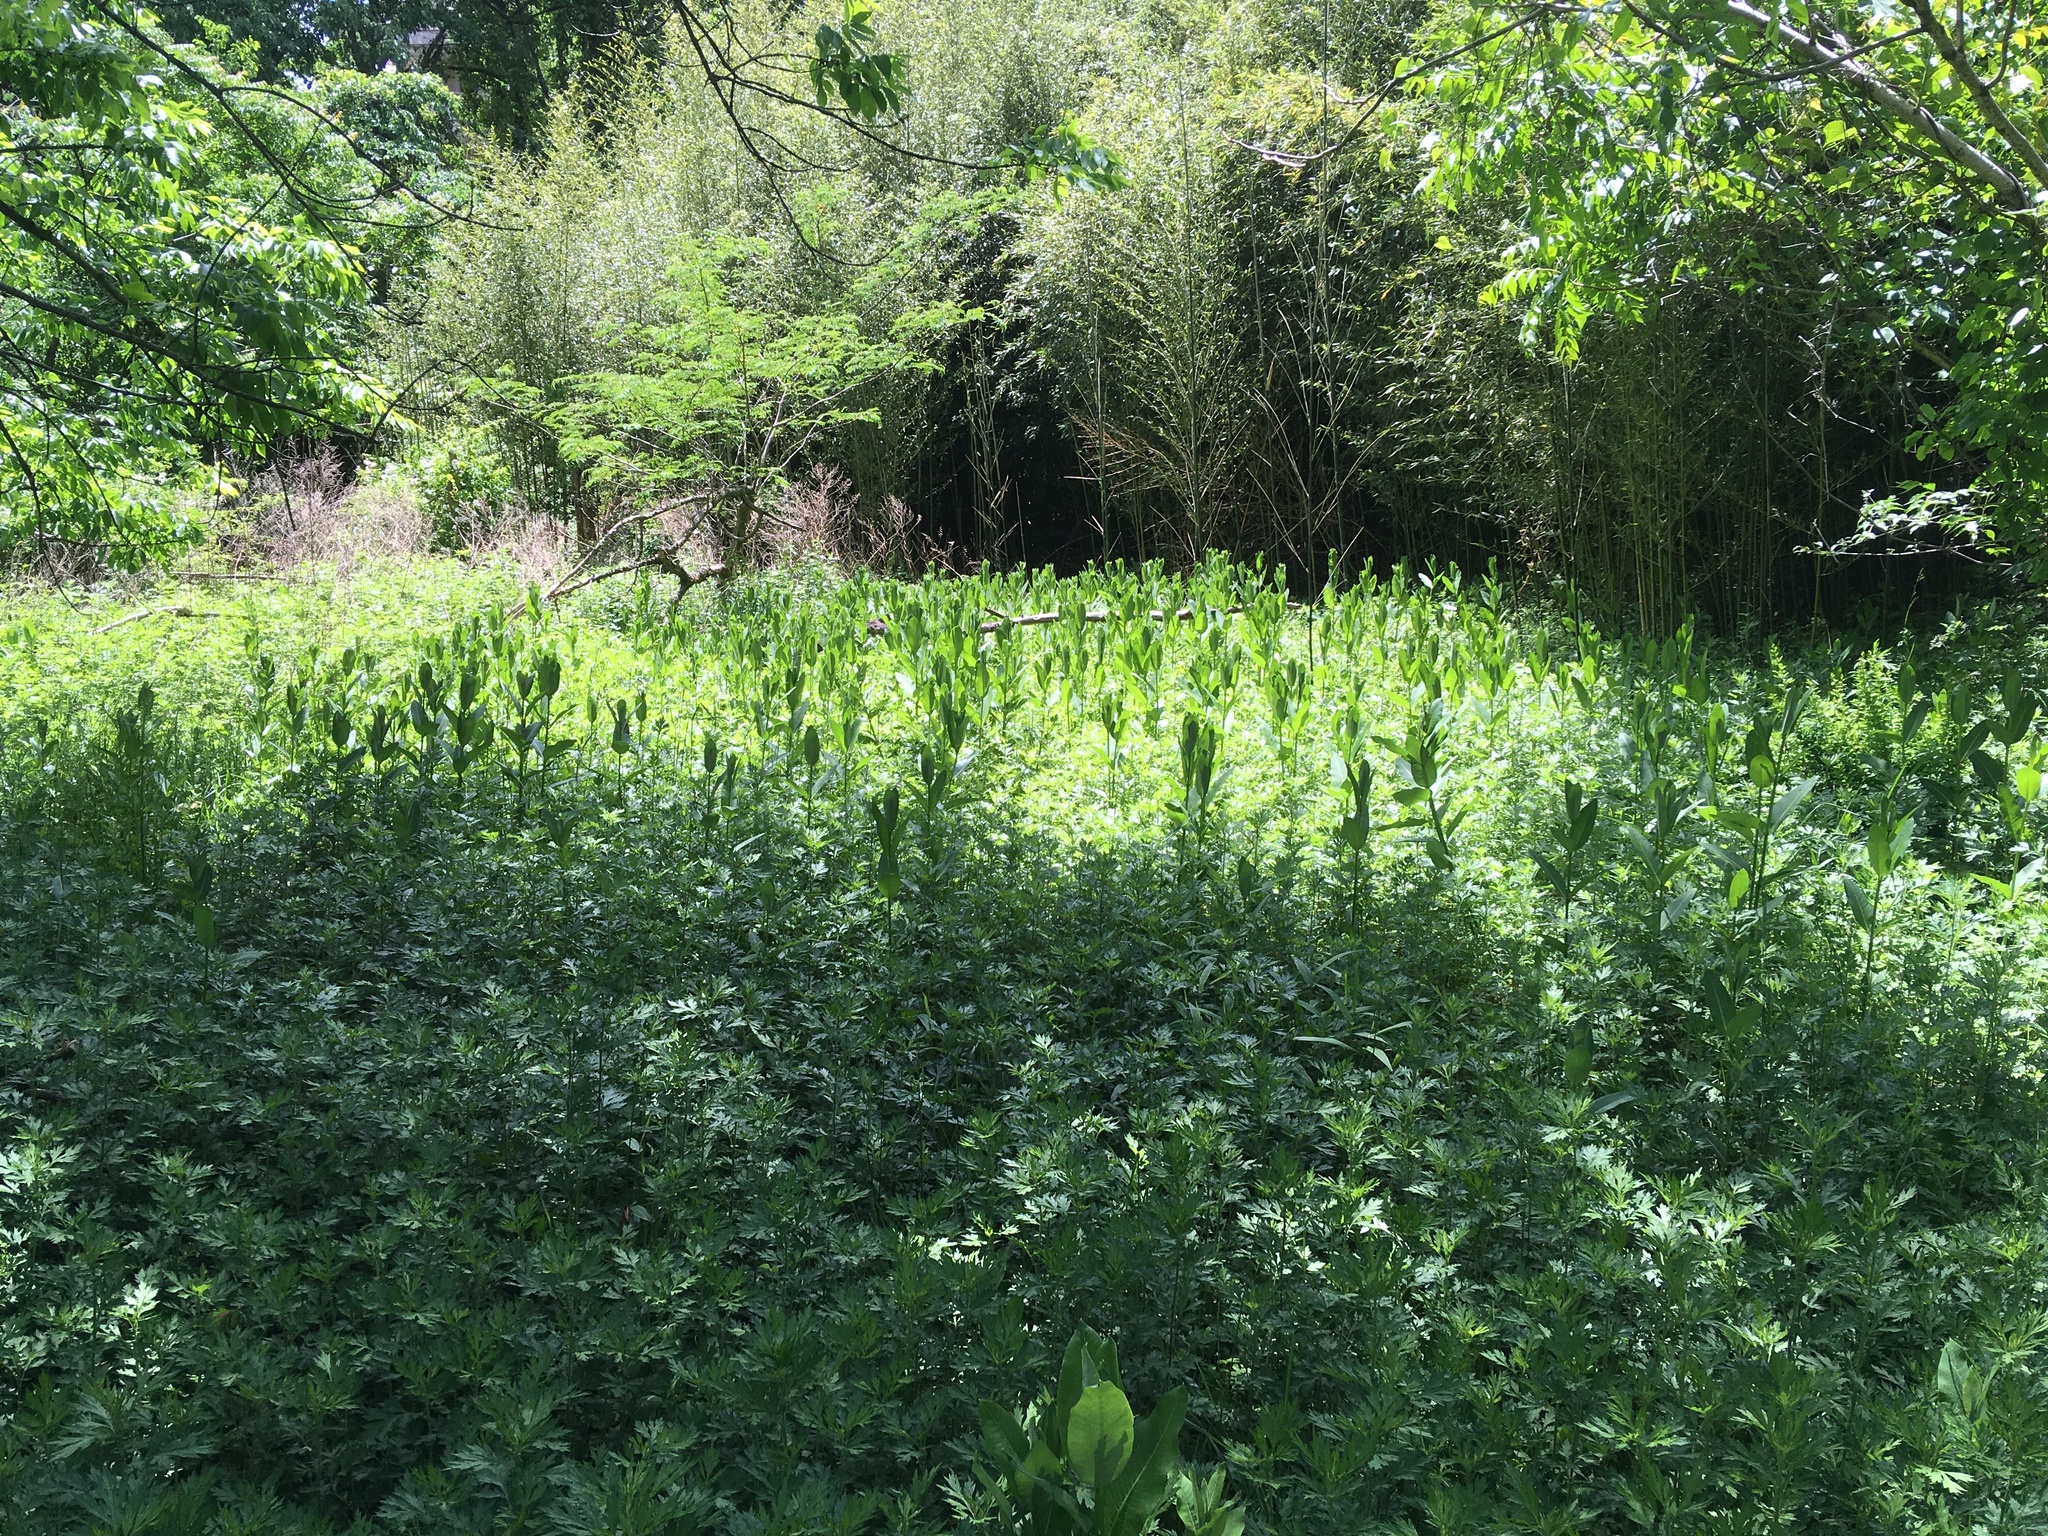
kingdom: Plantae
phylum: Tracheophyta
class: Magnoliopsida
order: Gentianales
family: Apocynaceae
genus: Asclepias
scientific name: Asclepias syriaca
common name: Common milkweed
